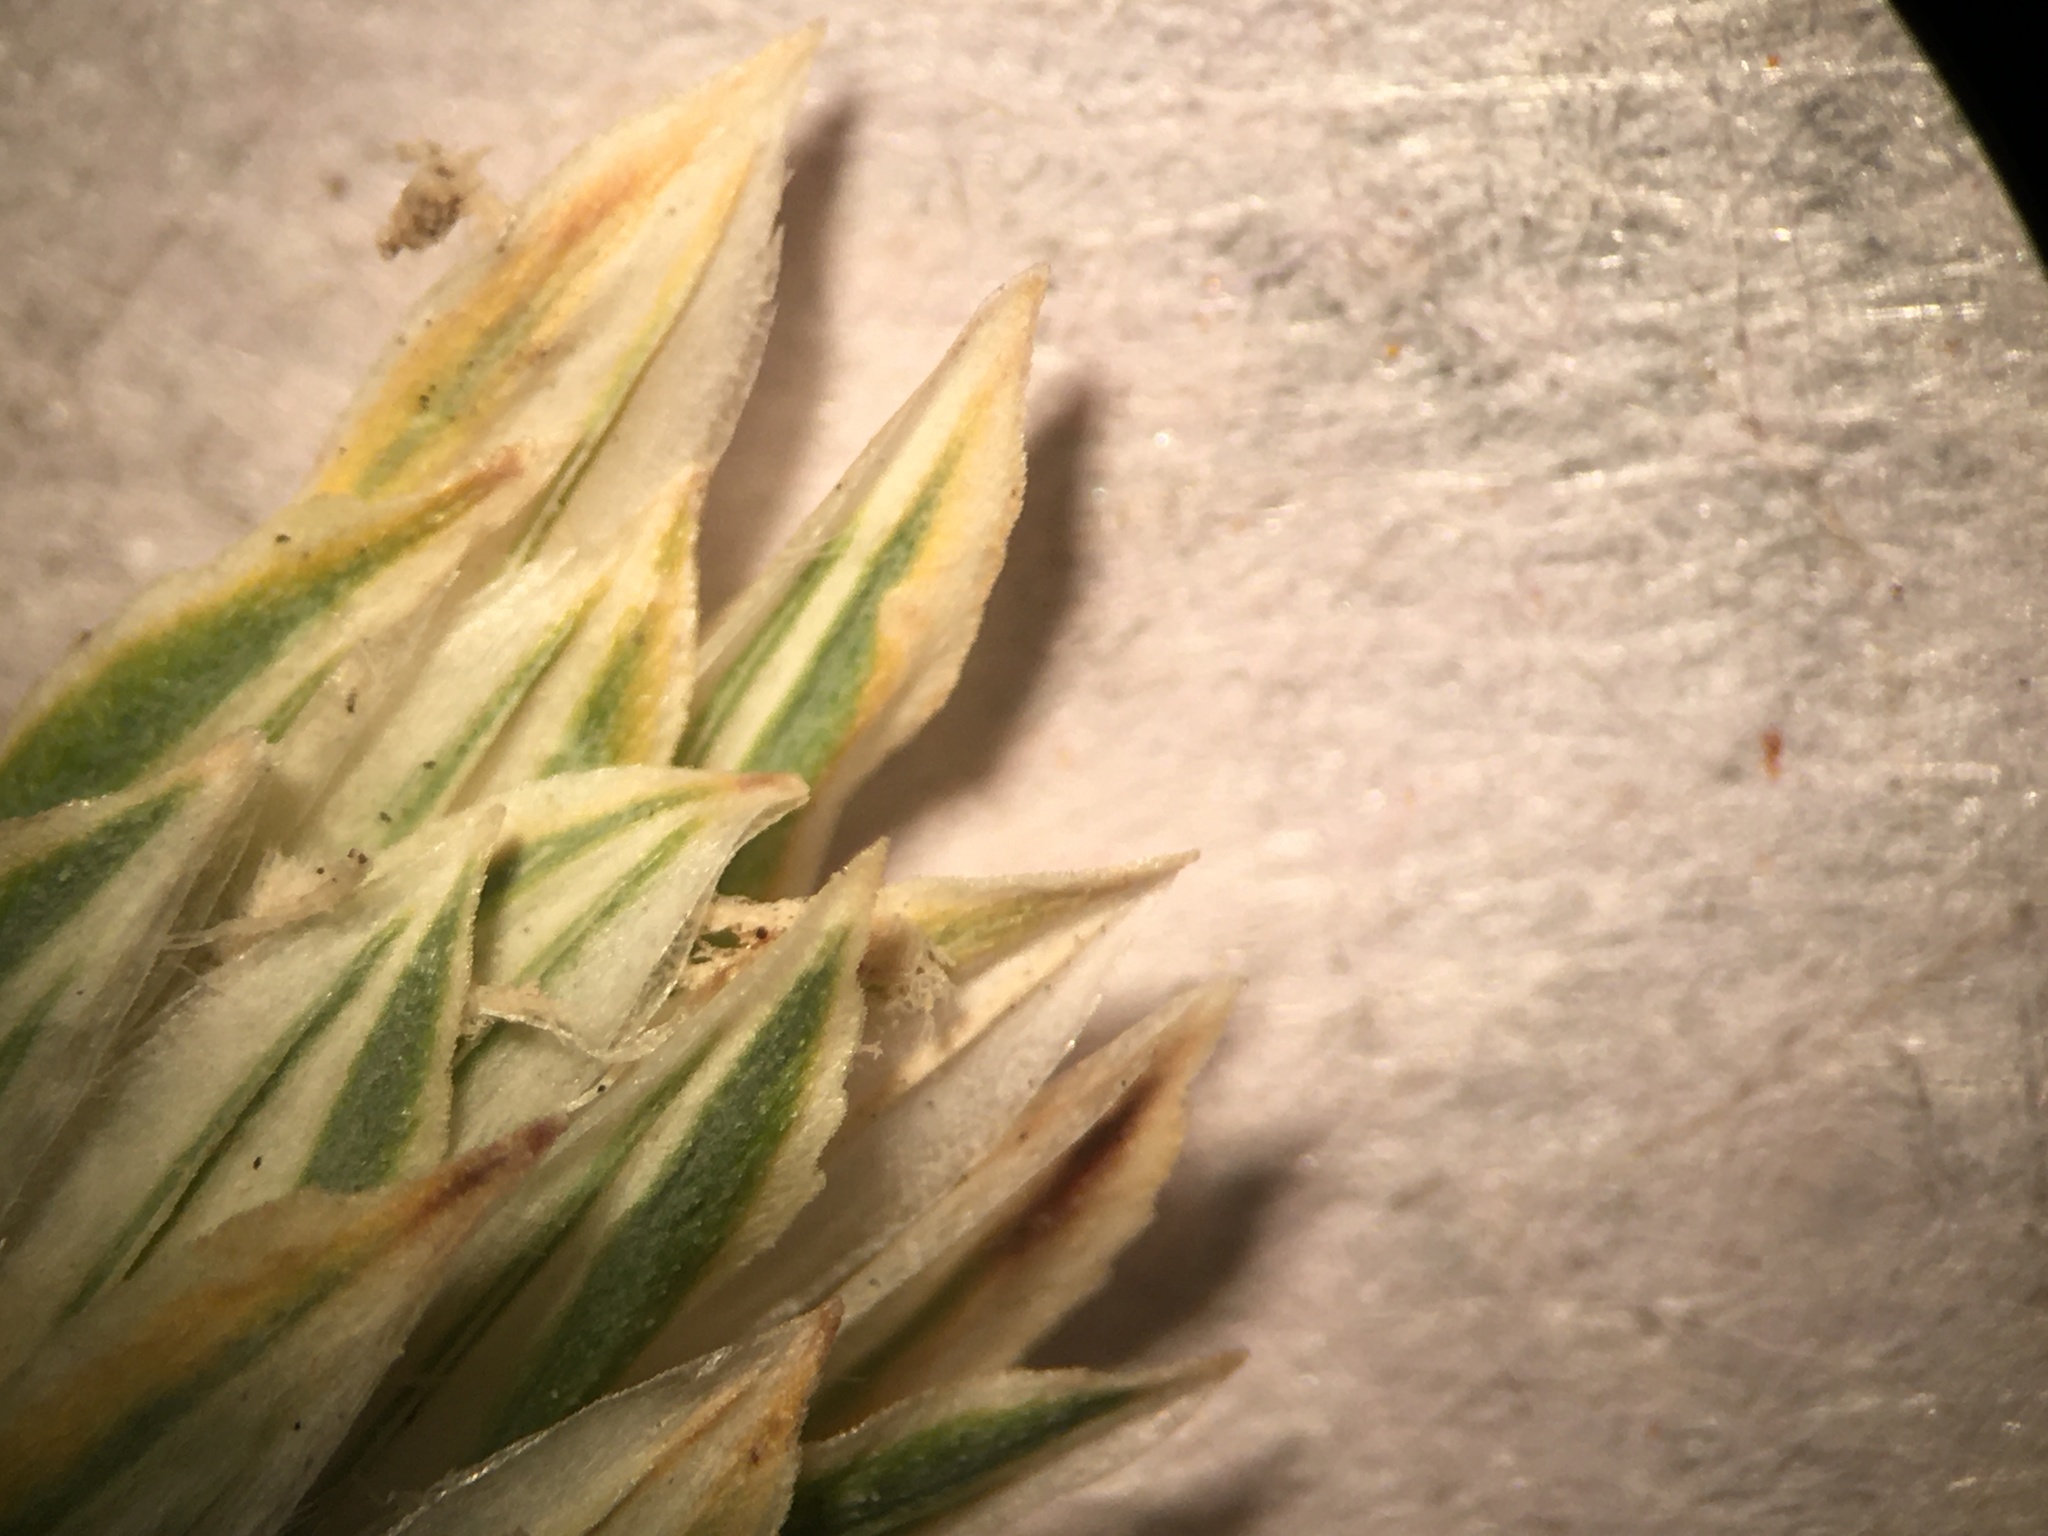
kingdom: Plantae
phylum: Tracheophyta
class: Liliopsida
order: Poales
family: Poaceae
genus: Phalaris
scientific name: Phalaris aquatica
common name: Bulbous canary-grass
